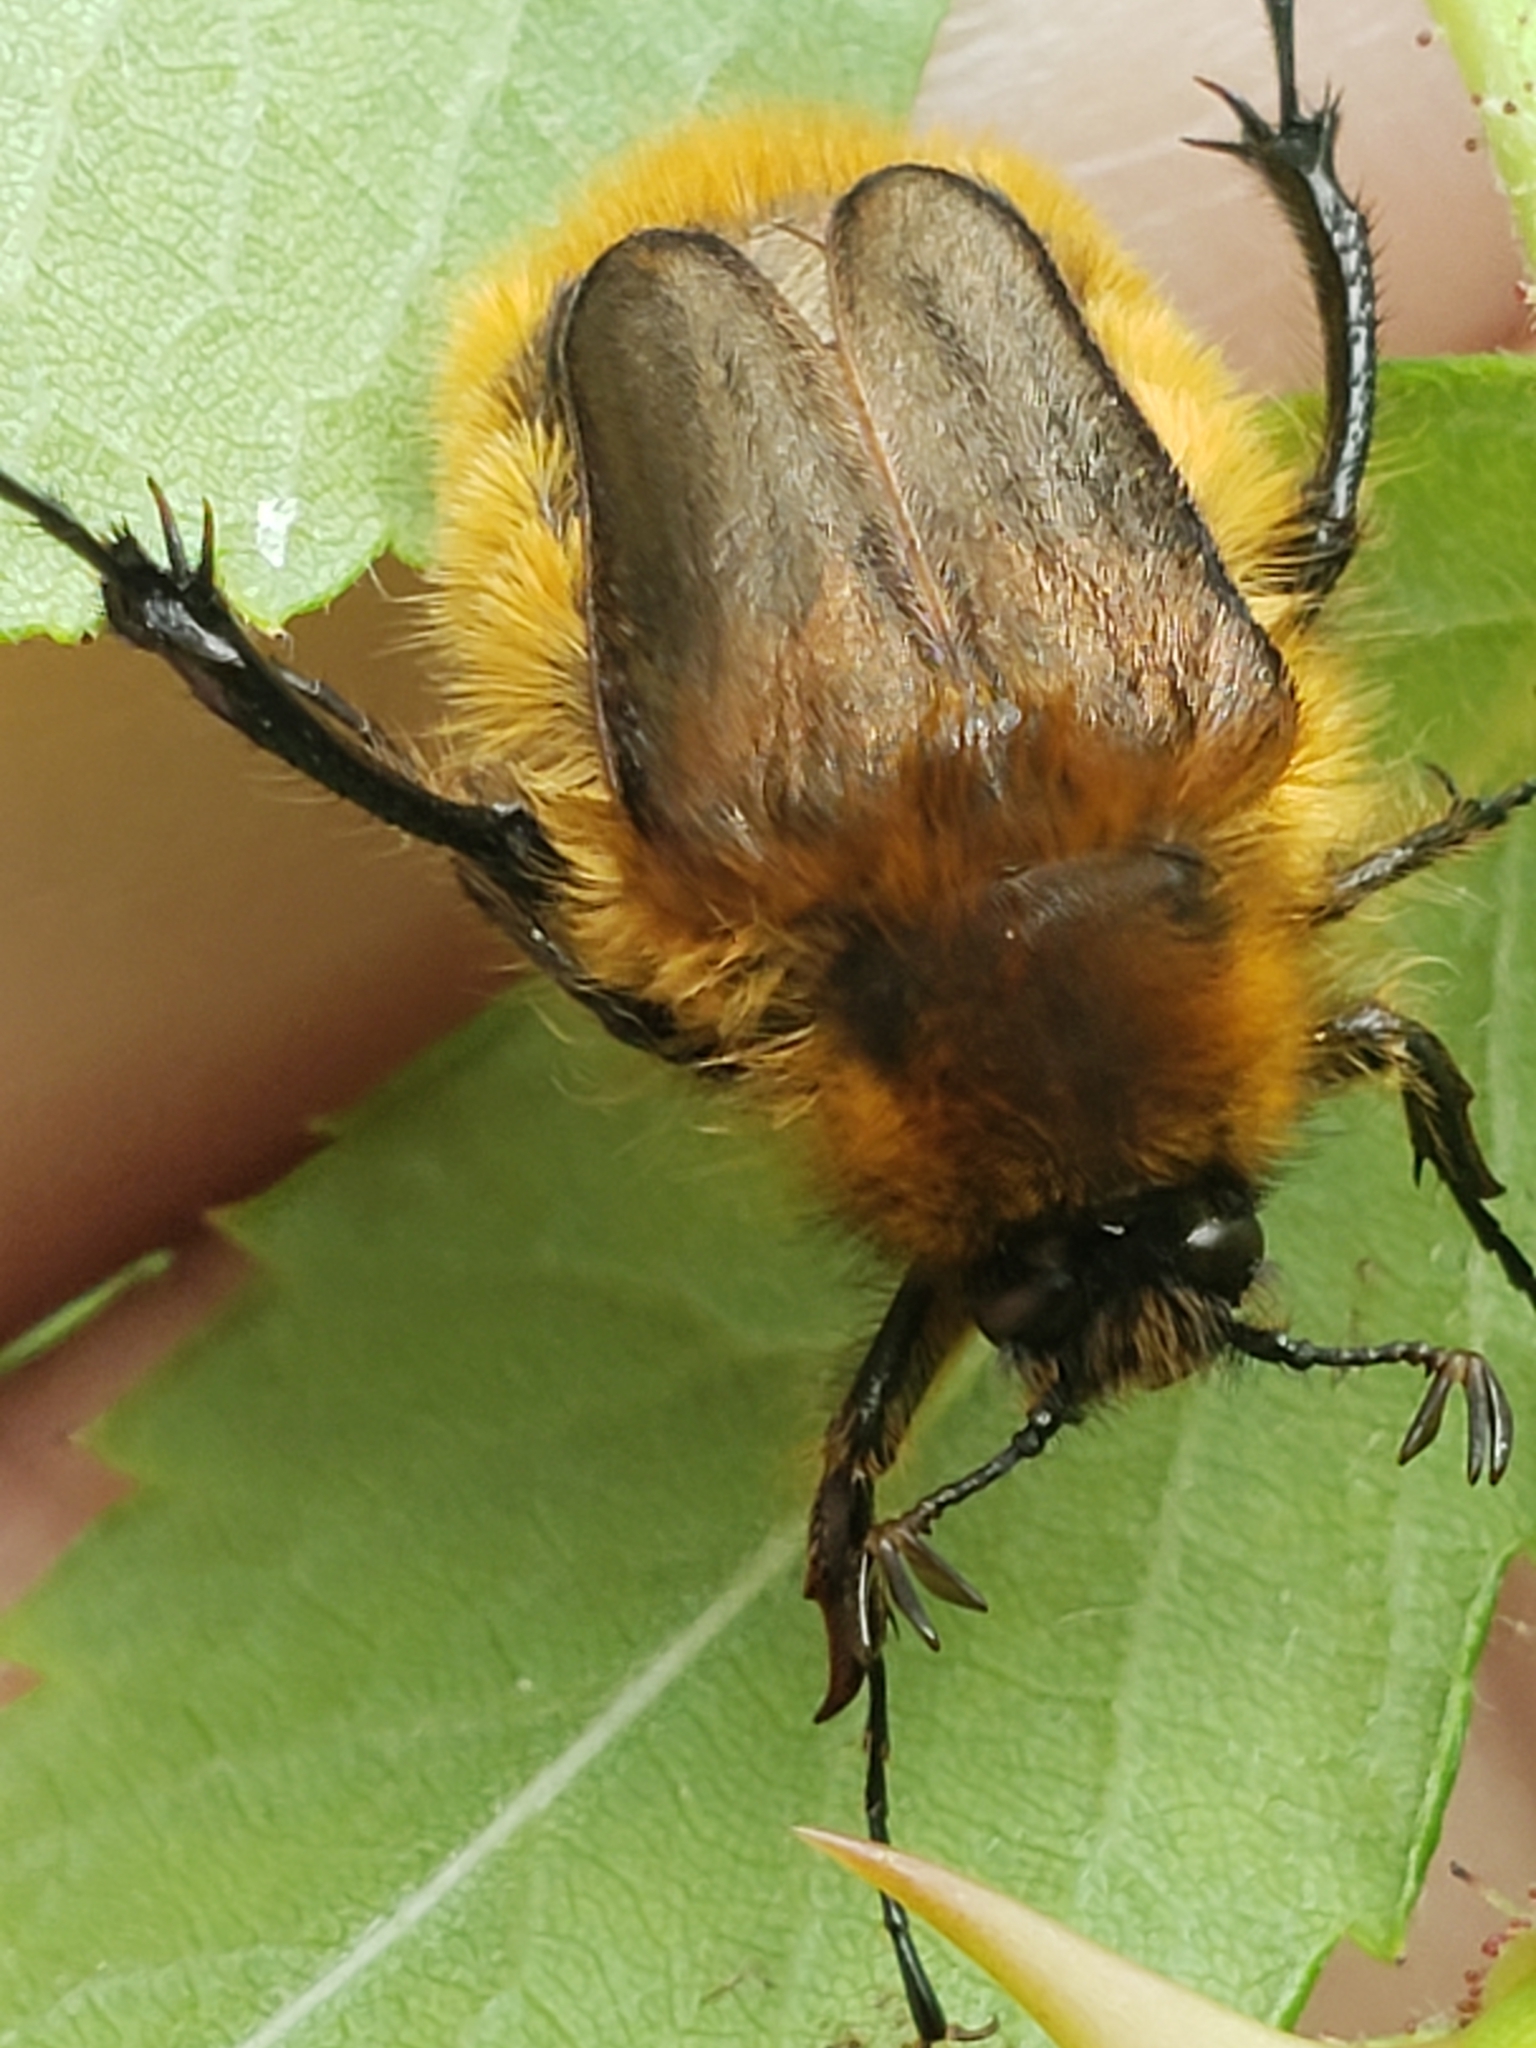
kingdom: Animalia
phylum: Arthropoda
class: Insecta
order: Coleoptera
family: Glaphyridae
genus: Lichnanthe
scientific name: Lichnanthe vulpina
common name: Cranberry root grub
